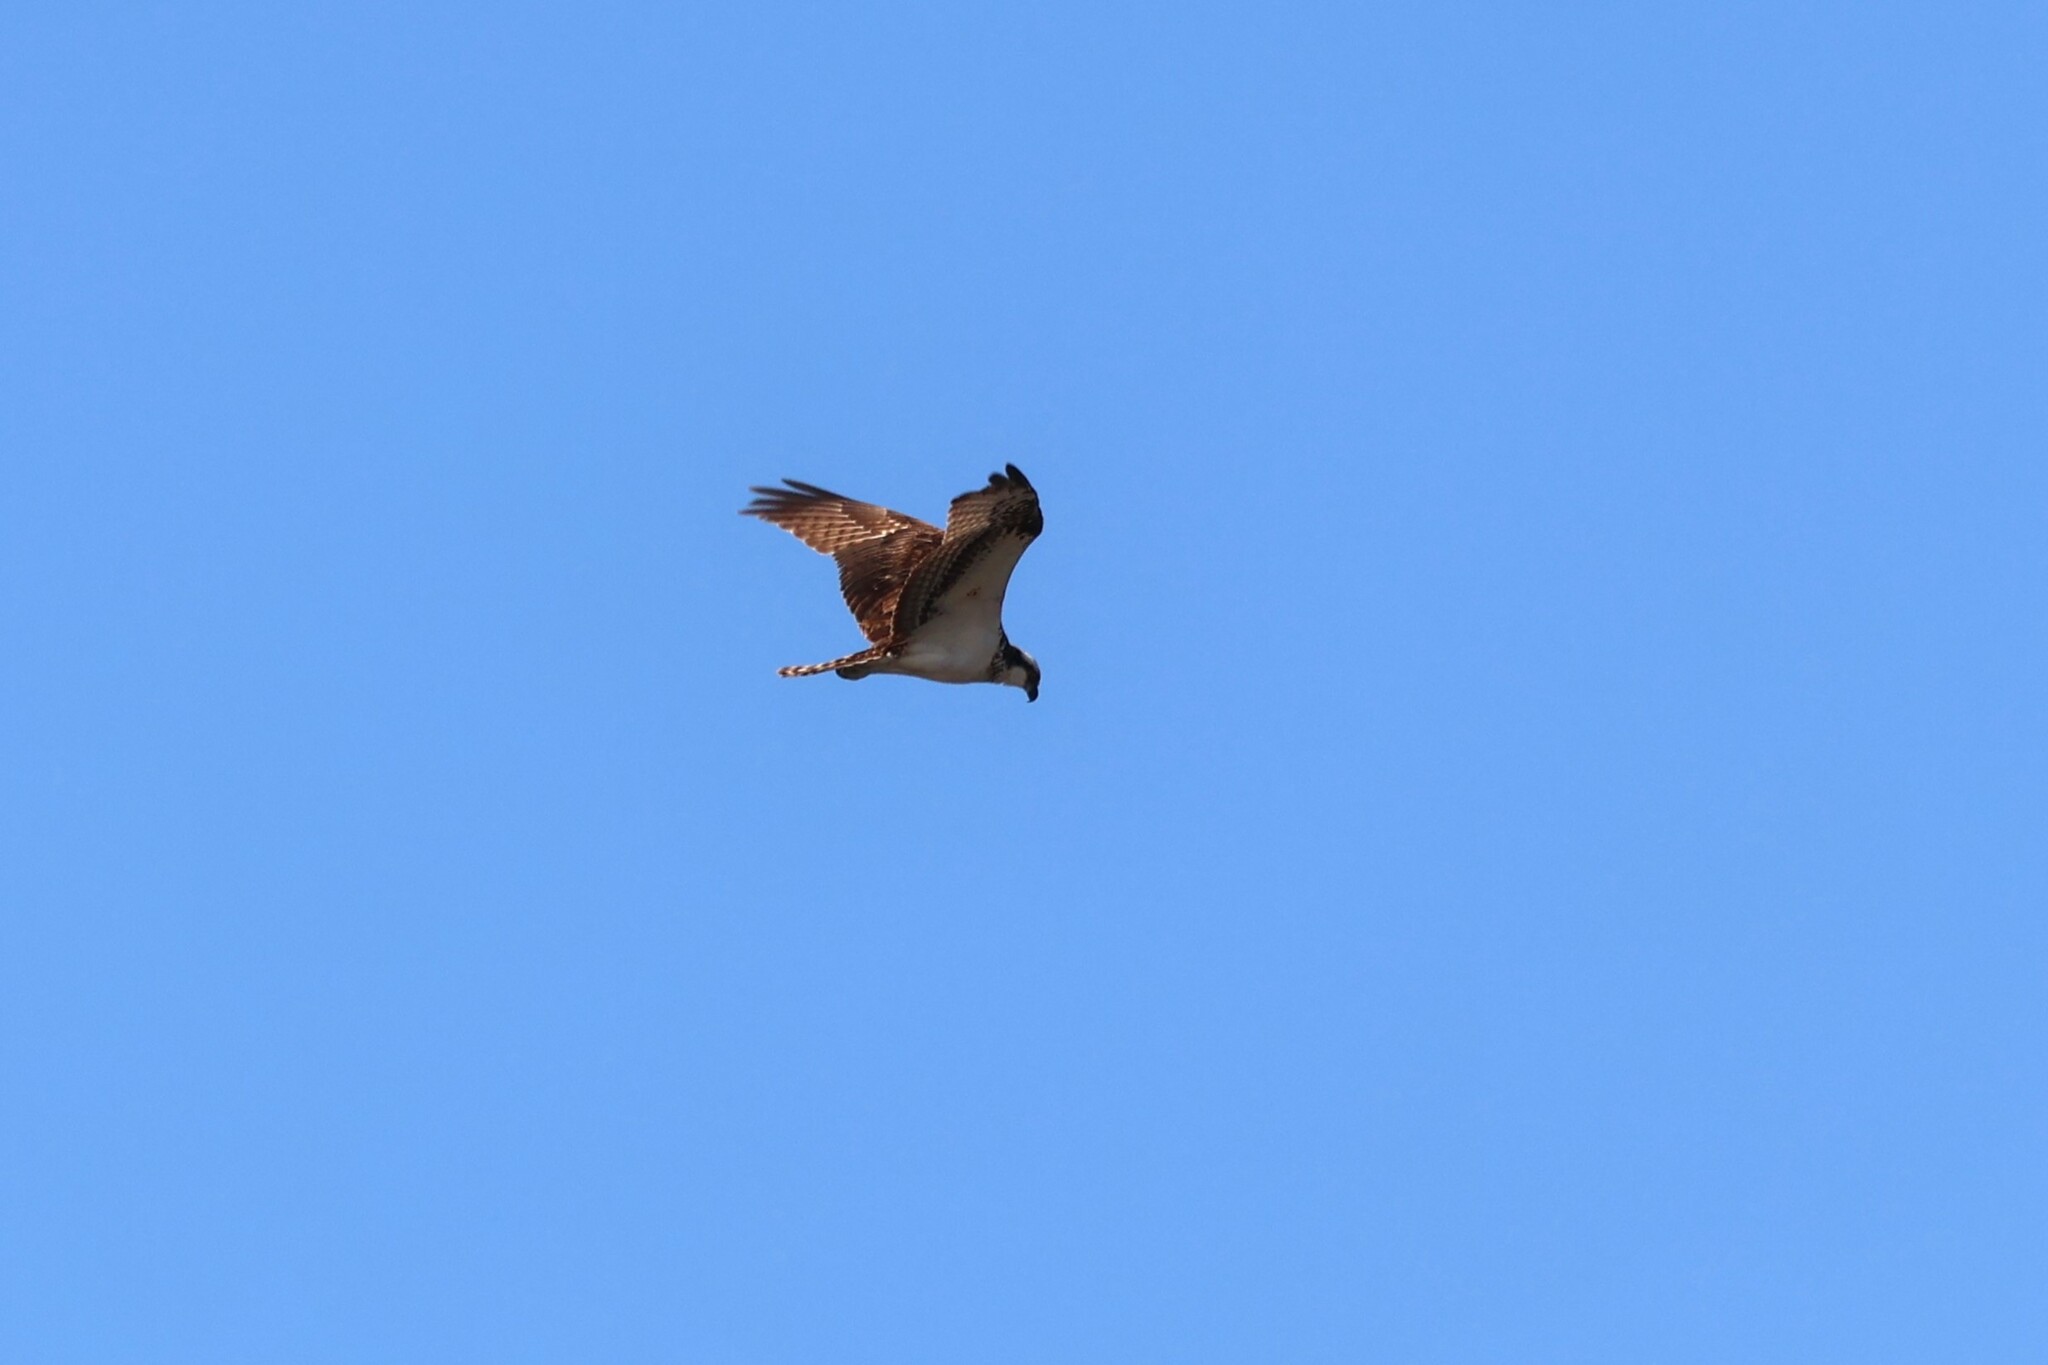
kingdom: Animalia
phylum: Chordata
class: Aves
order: Accipitriformes
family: Pandionidae
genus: Pandion
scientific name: Pandion haliaetus
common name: Osprey
